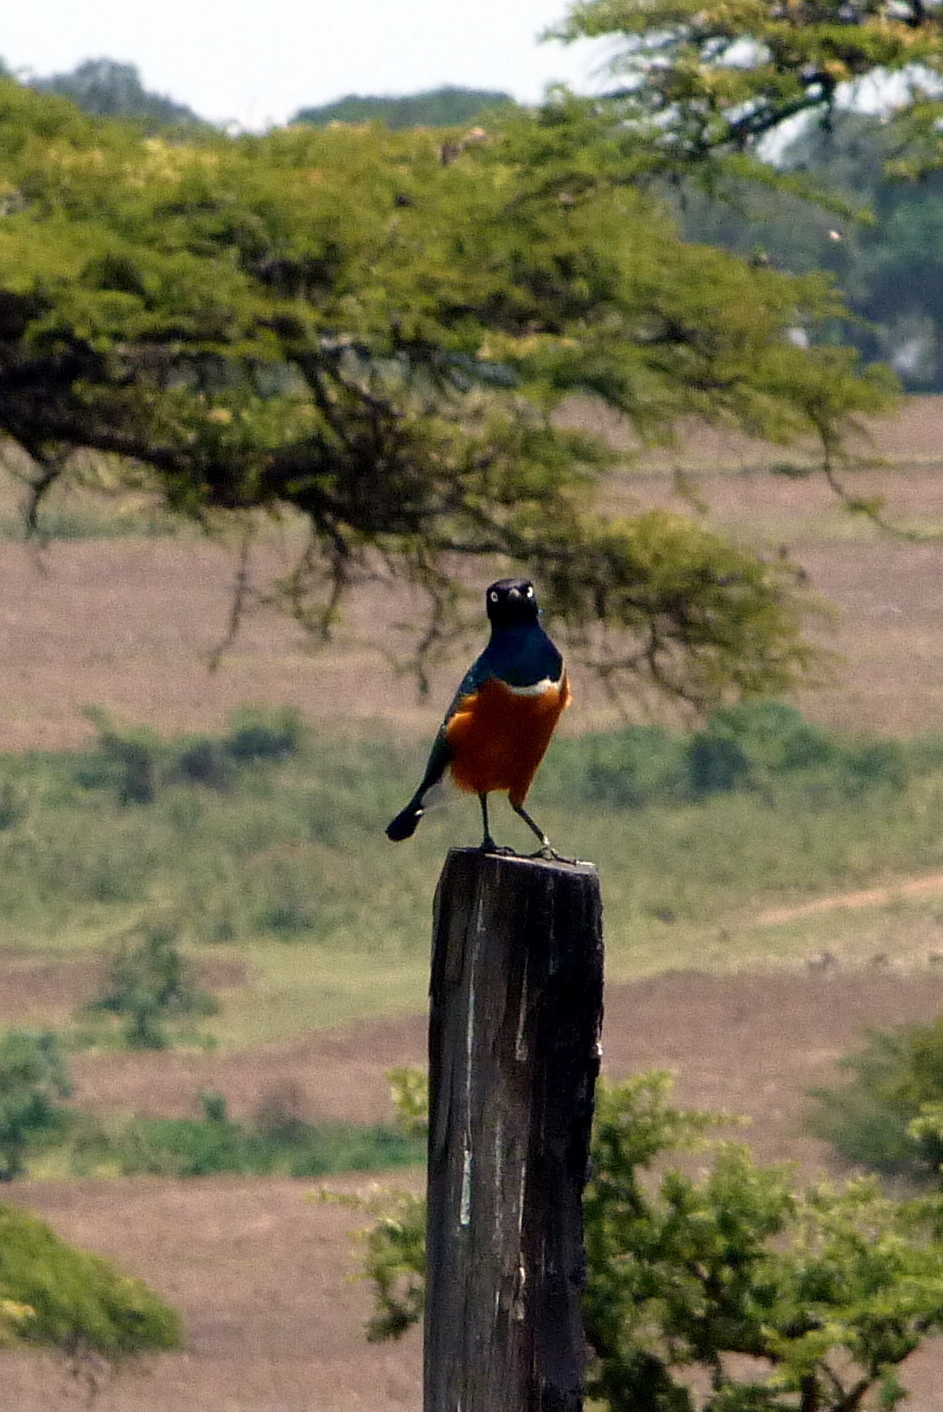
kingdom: Animalia
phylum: Chordata
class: Aves
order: Passeriformes
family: Sturnidae
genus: Lamprotornis
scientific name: Lamprotornis superbus
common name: Superb starling
